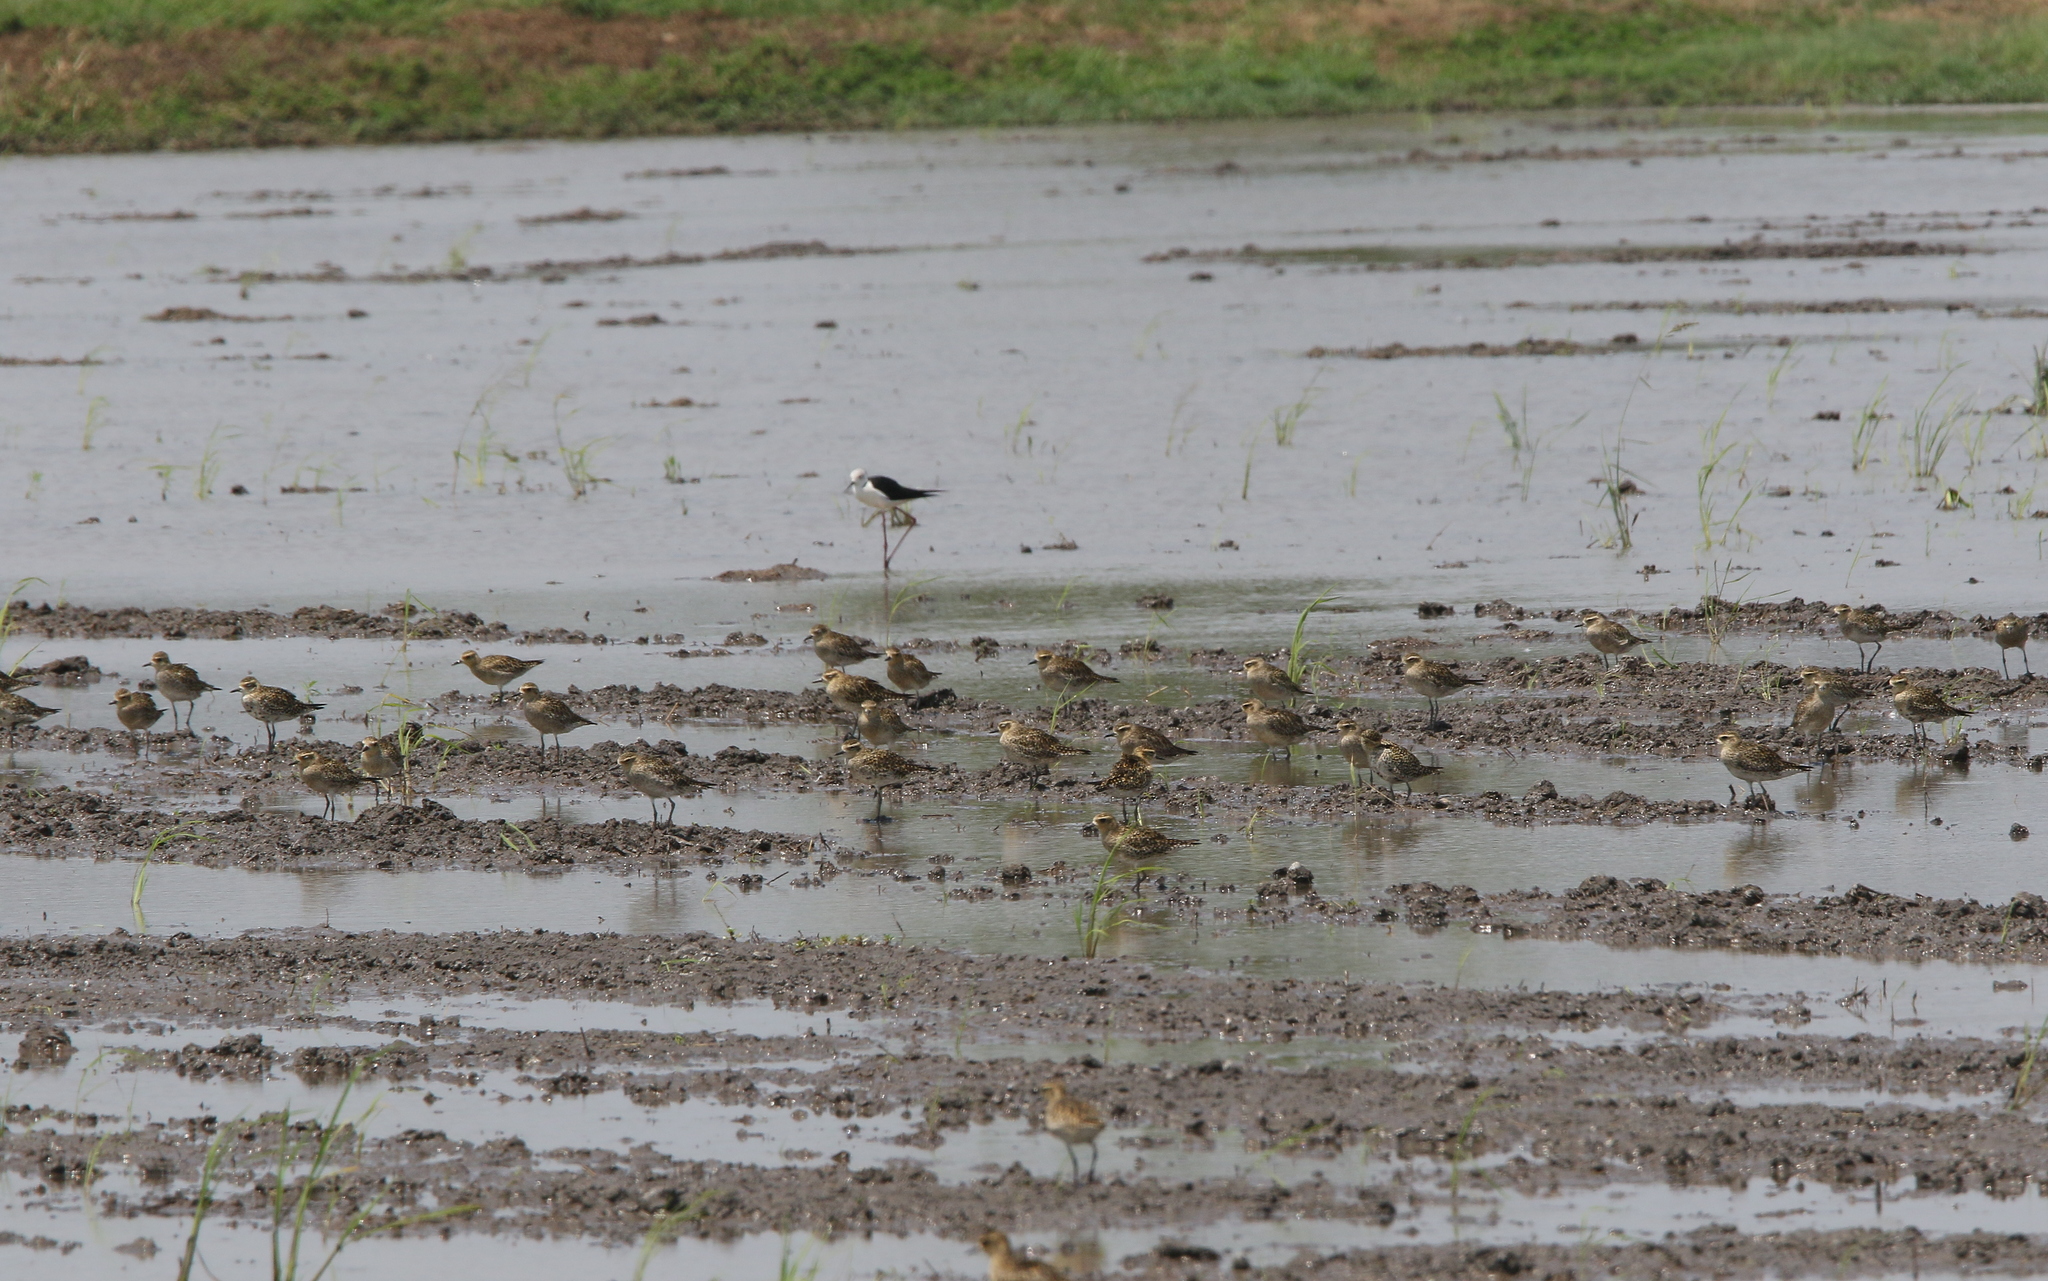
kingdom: Animalia
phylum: Chordata
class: Aves
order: Charadriiformes
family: Charadriidae
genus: Pluvialis
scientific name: Pluvialis fulva
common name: Pacific golden plover
